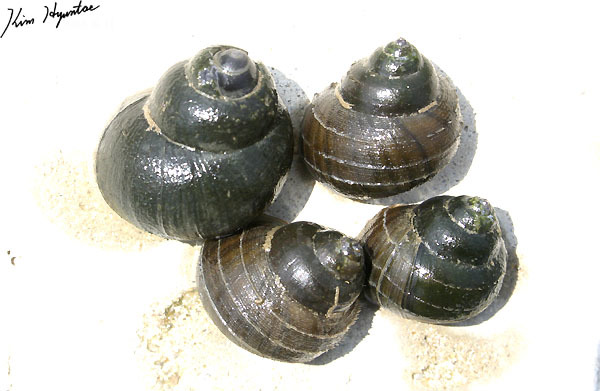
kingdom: Animalia
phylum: Mollusca
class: Gastropoda
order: Architaenioglossa
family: Viviparidae
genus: Cipangopaludina
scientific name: Cipangopaludina chinensis
